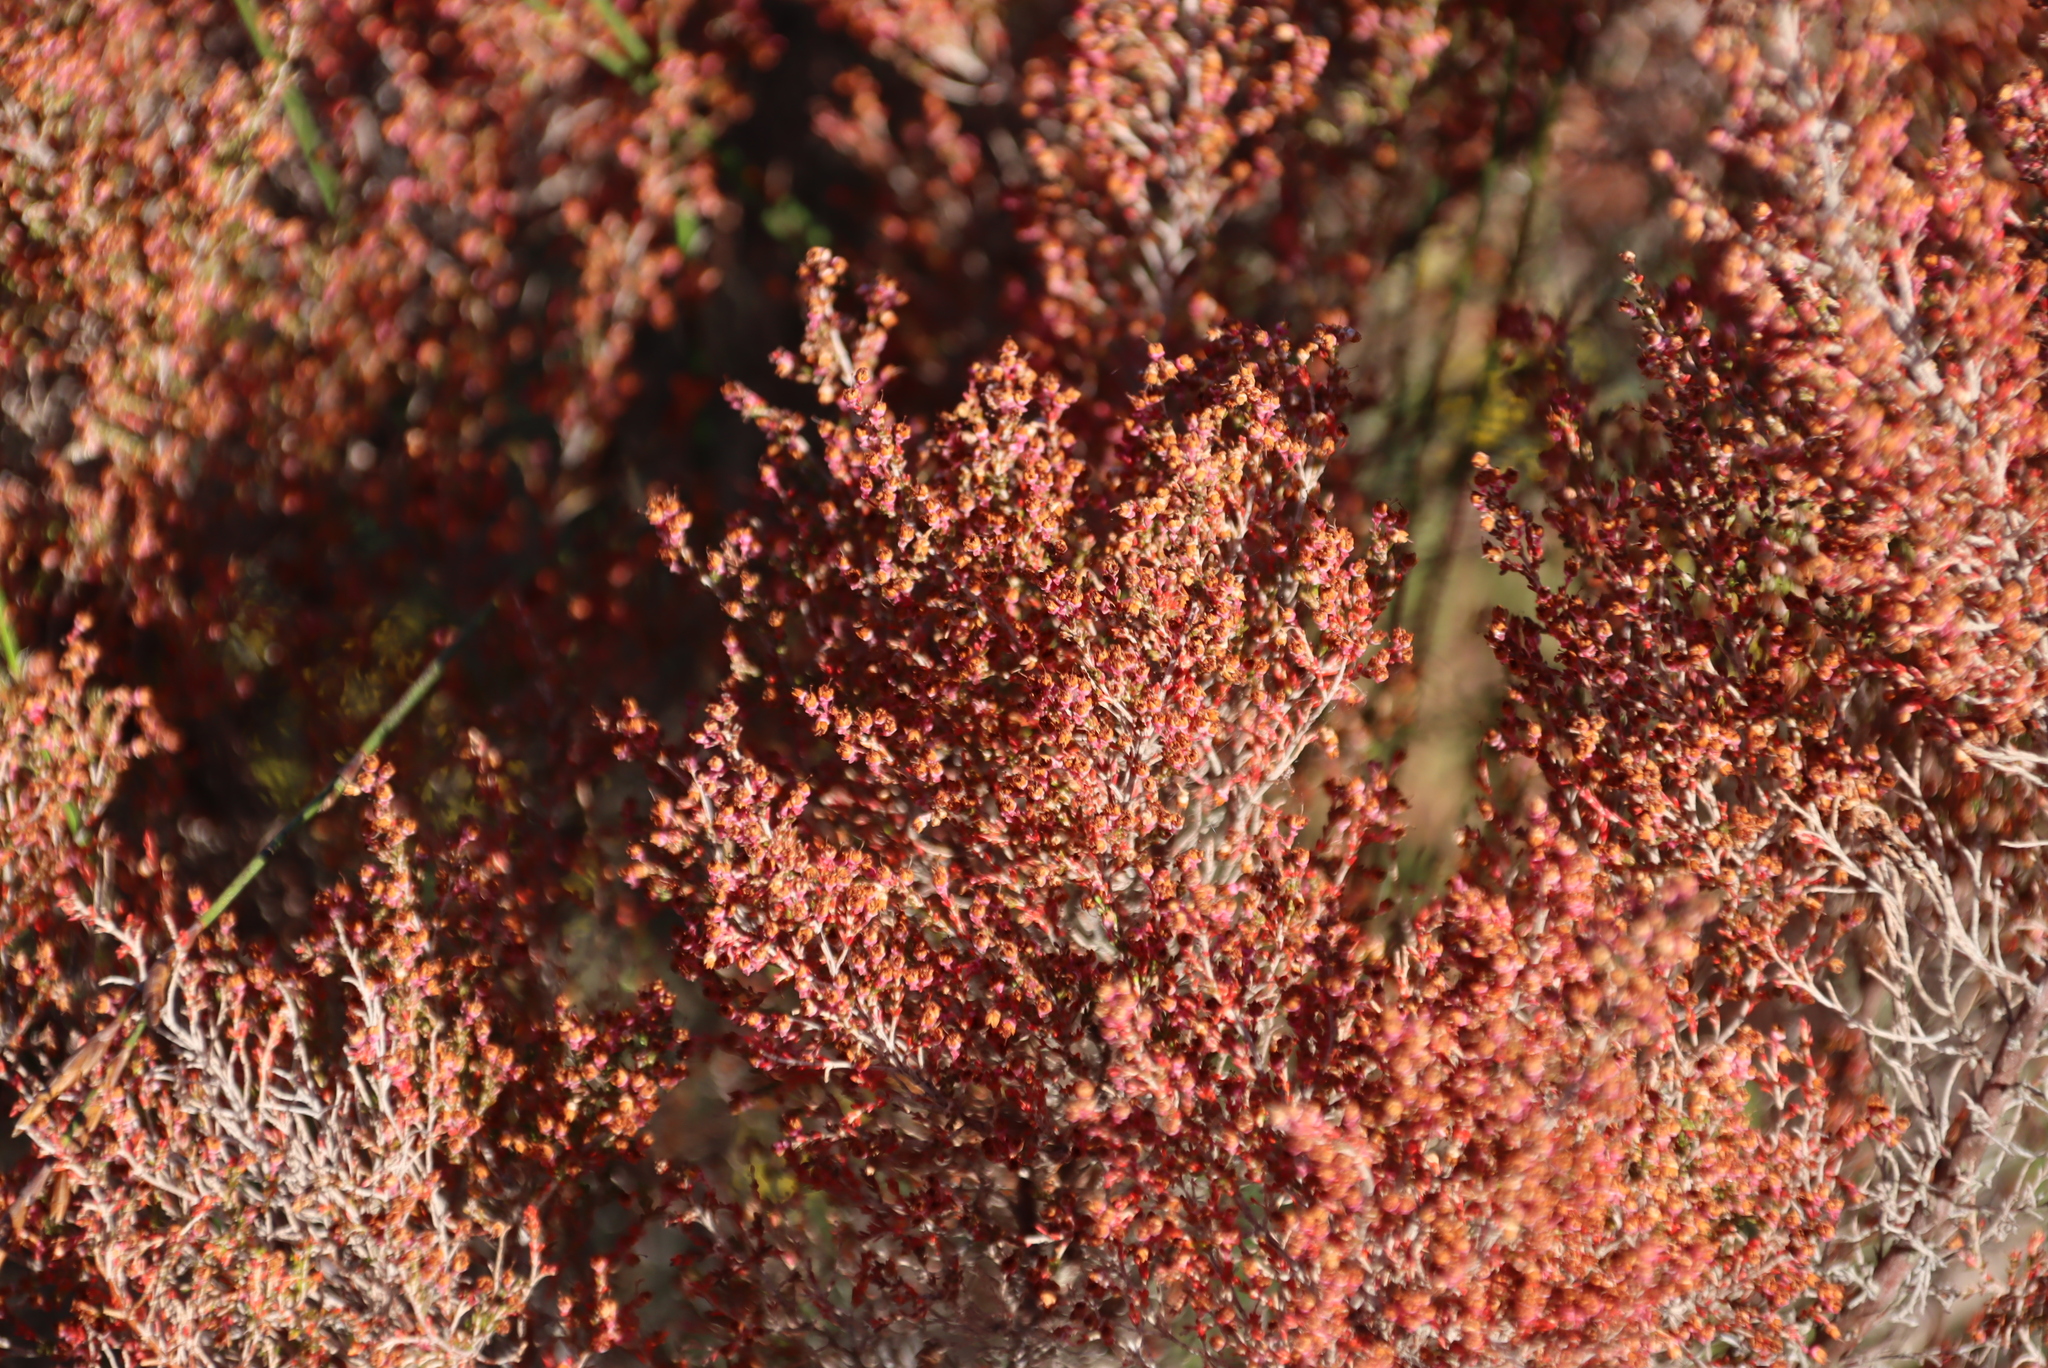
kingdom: Plantae
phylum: Tracheophyta
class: Magnoliopsida
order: Ericales
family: Ericaceae
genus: Erica
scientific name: Erica sparsa
